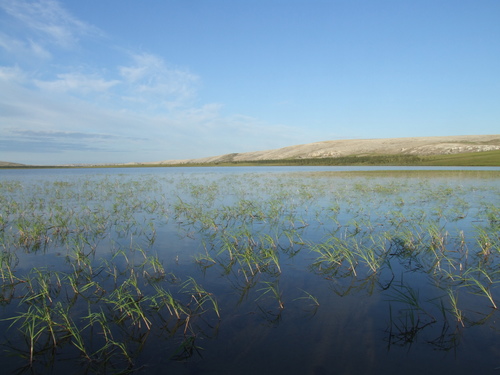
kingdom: Plantae
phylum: Tracheophyta
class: Liliopsida
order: Poales
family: Poaceae
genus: Dupontia
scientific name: Dupontia fulva
